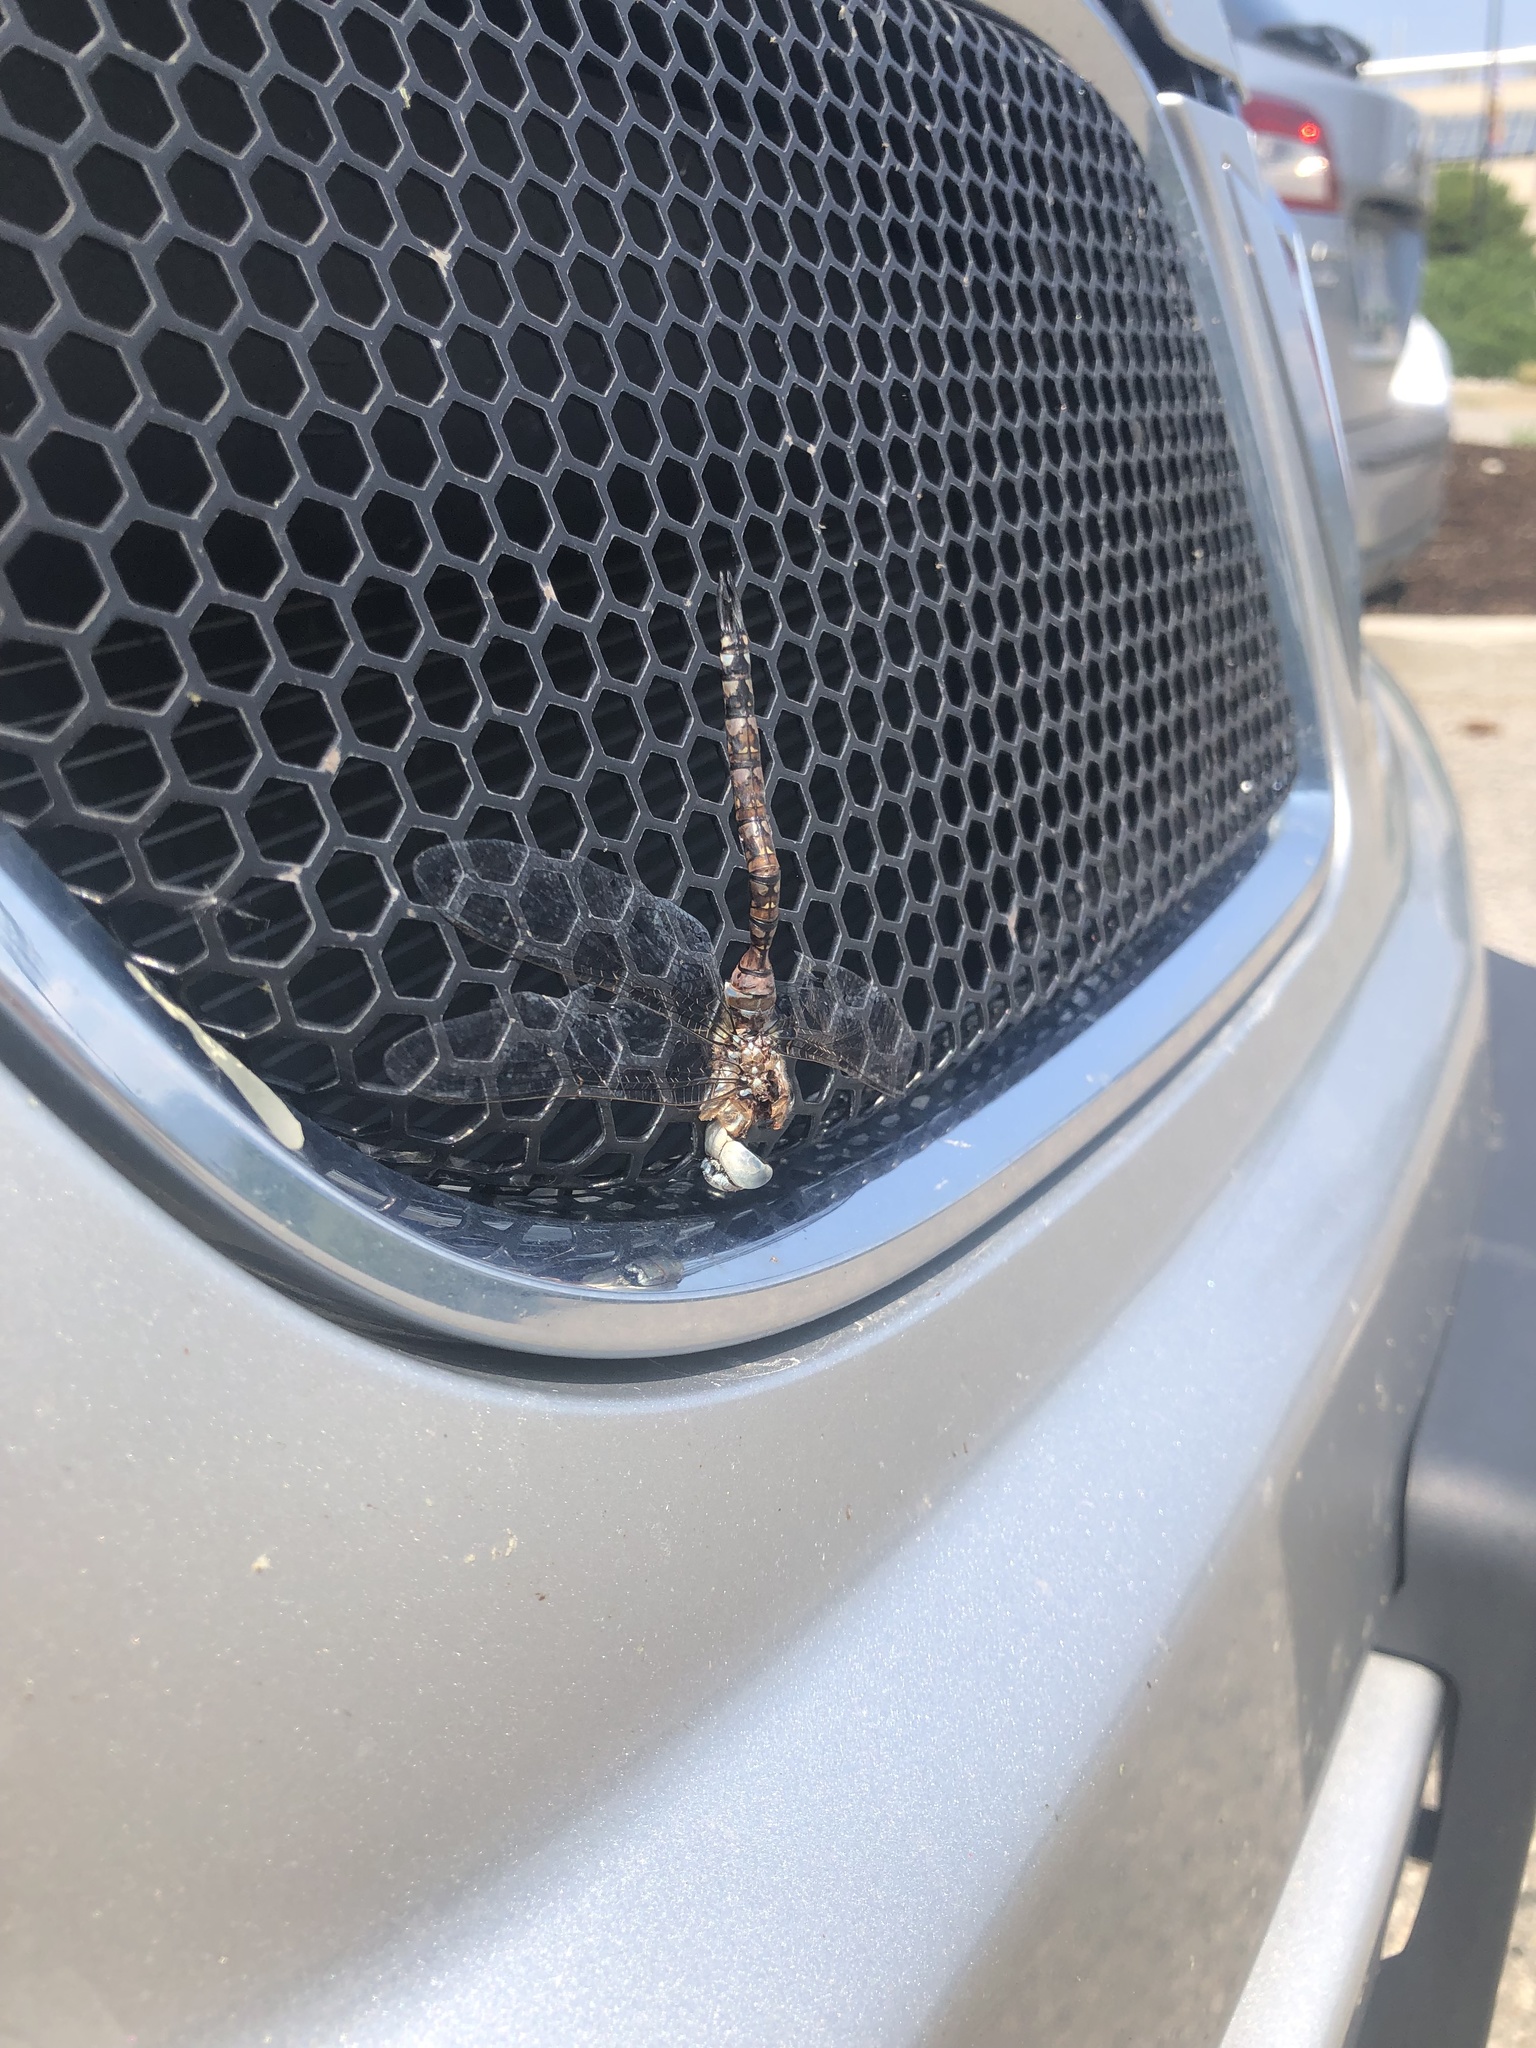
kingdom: Animalia
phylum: Arthropoda
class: Insecta
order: Odonata
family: Aeshnidae
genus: Rhionaeschna
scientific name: Rhionaeschna multicolor
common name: Blue-eyed darner
